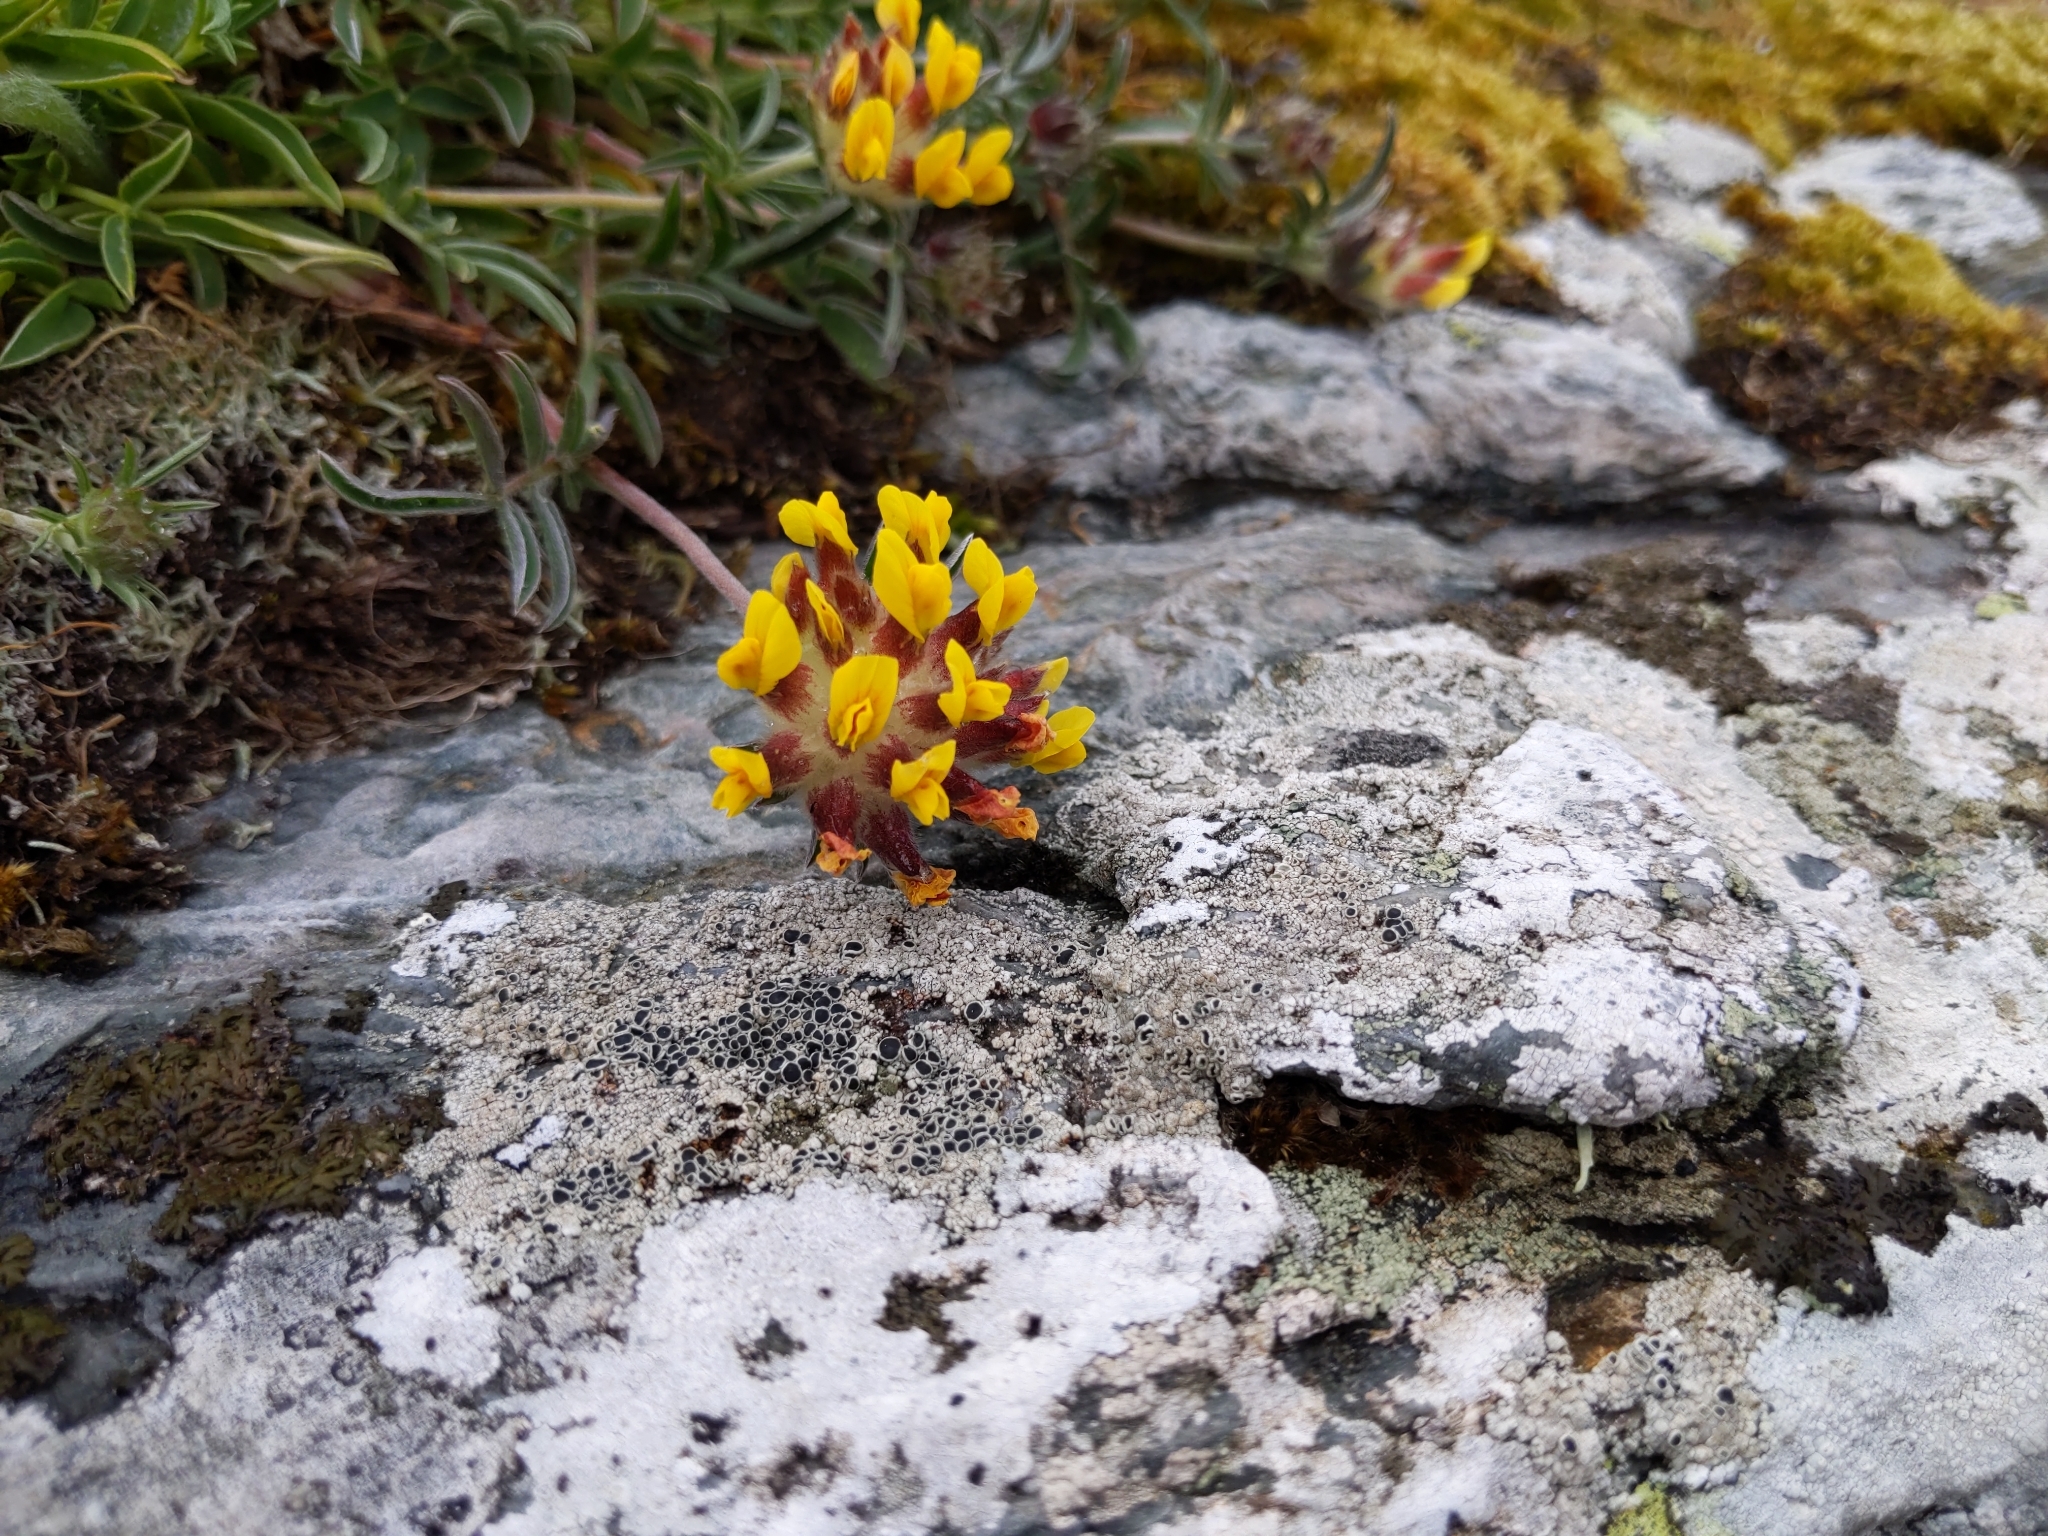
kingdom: Plantae
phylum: Tracheophyta
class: Magnoliopsida
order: Fabales
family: Fabaceae
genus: Anthyllis
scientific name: Anthyllis vulneraria
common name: Kidney vetch
